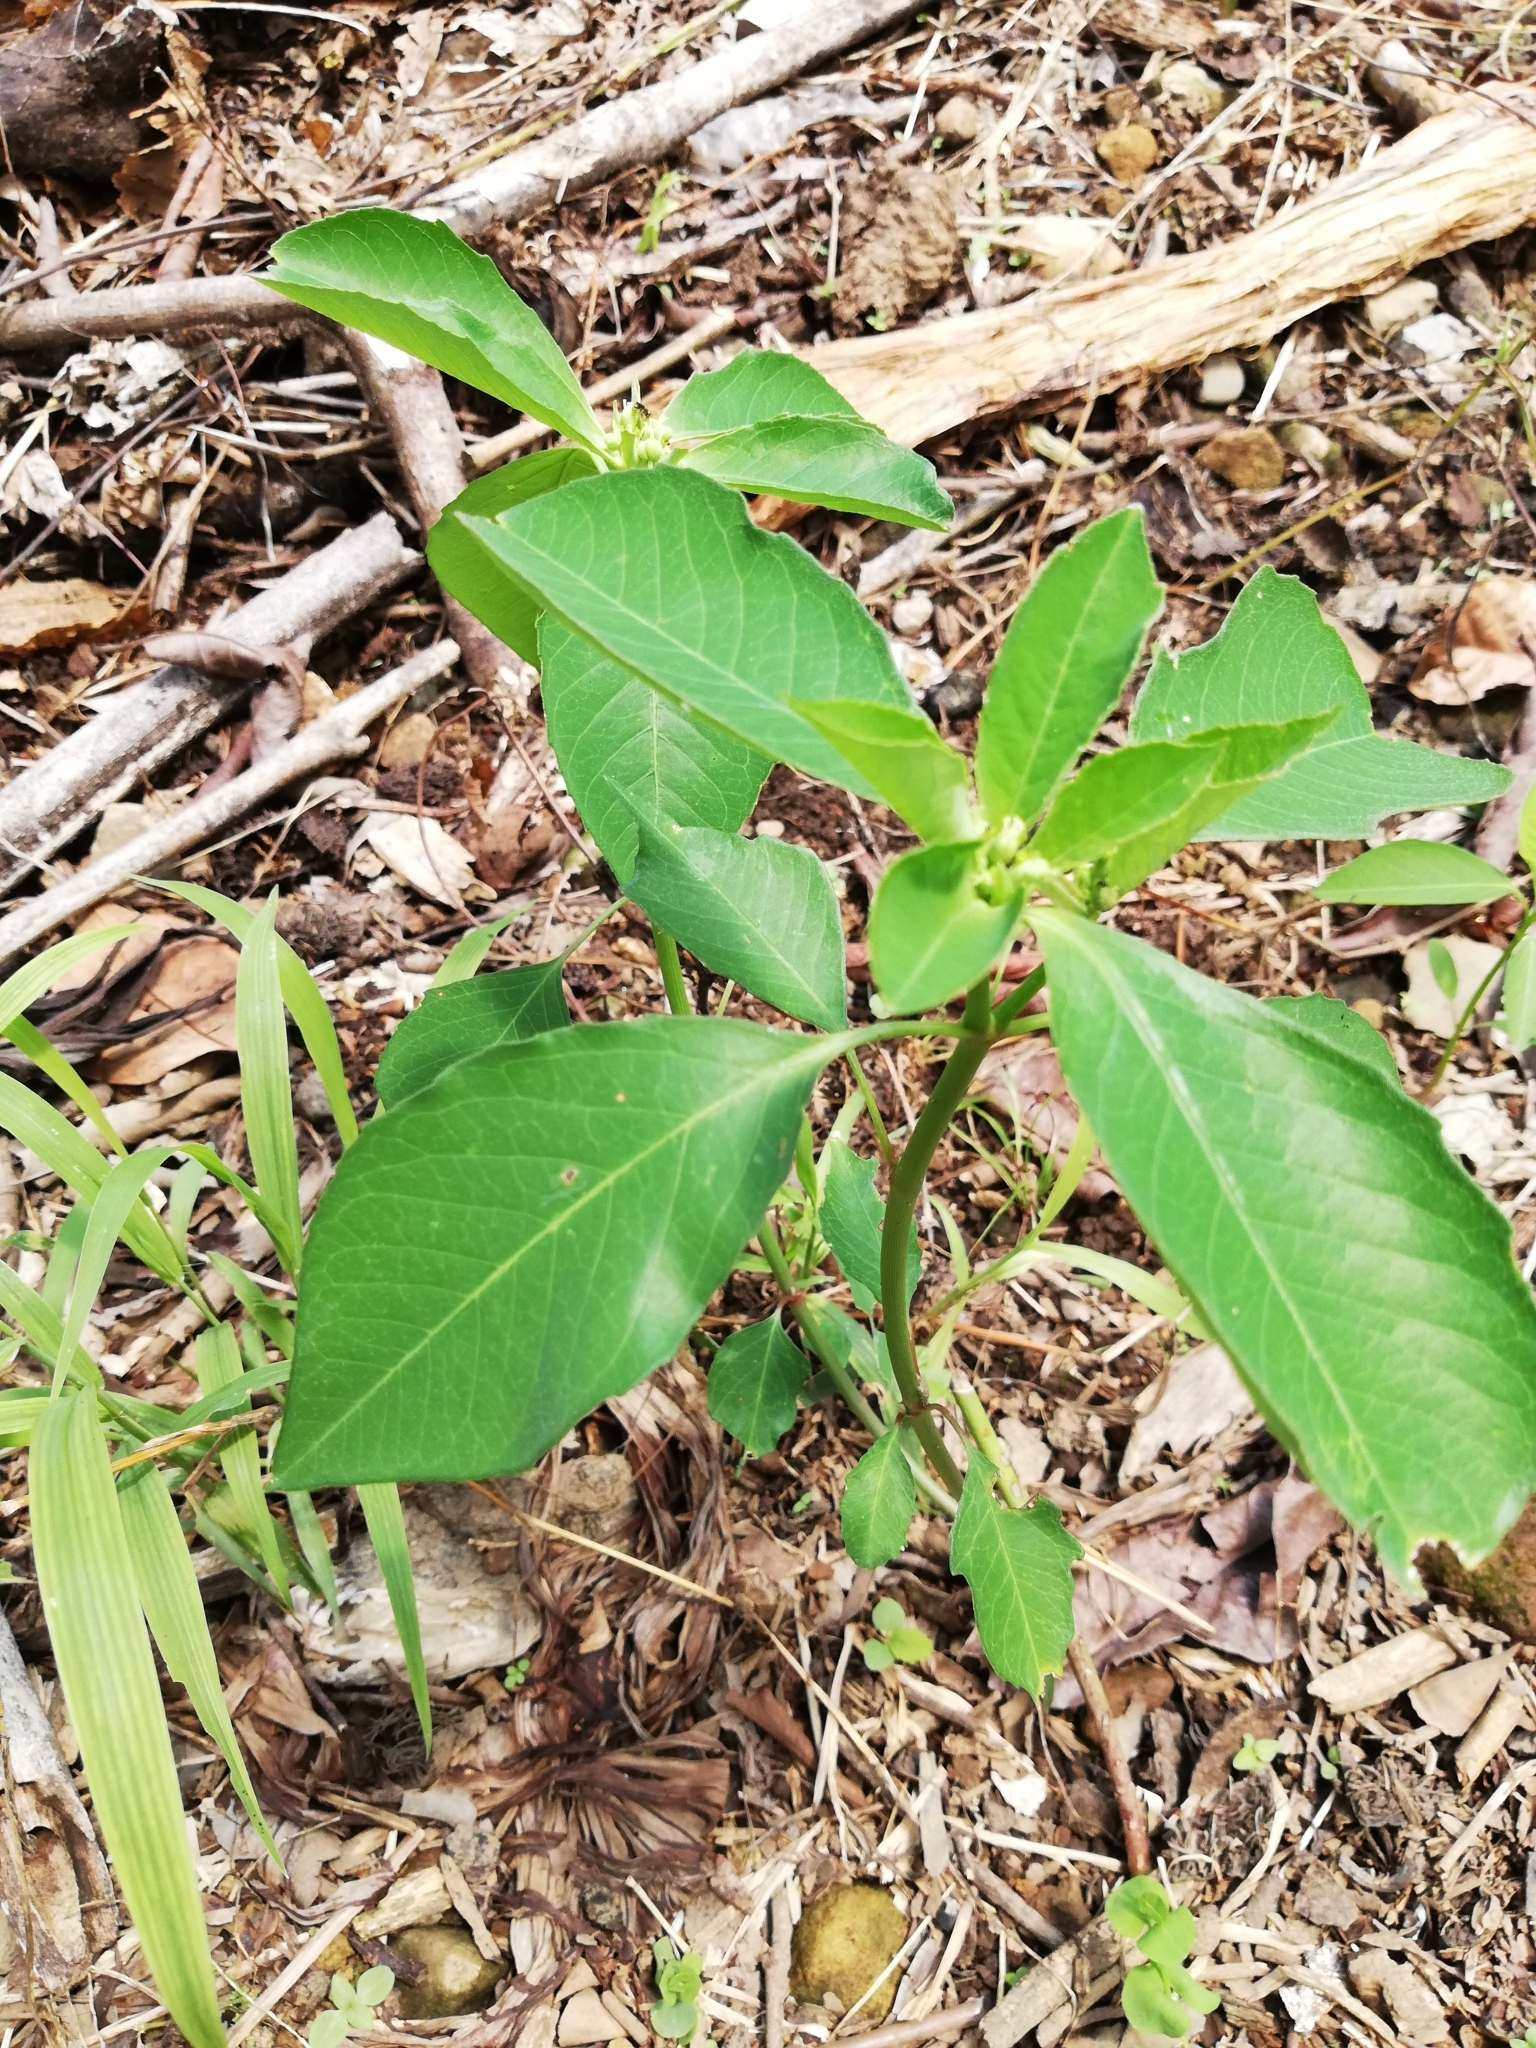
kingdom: Plantae
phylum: Tracheophyta
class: Magnoliopsida
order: Malpighiales
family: Euphorbiaceae
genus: Euphorbia
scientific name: Euphorbia heterophylla
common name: Mexican fireplant
